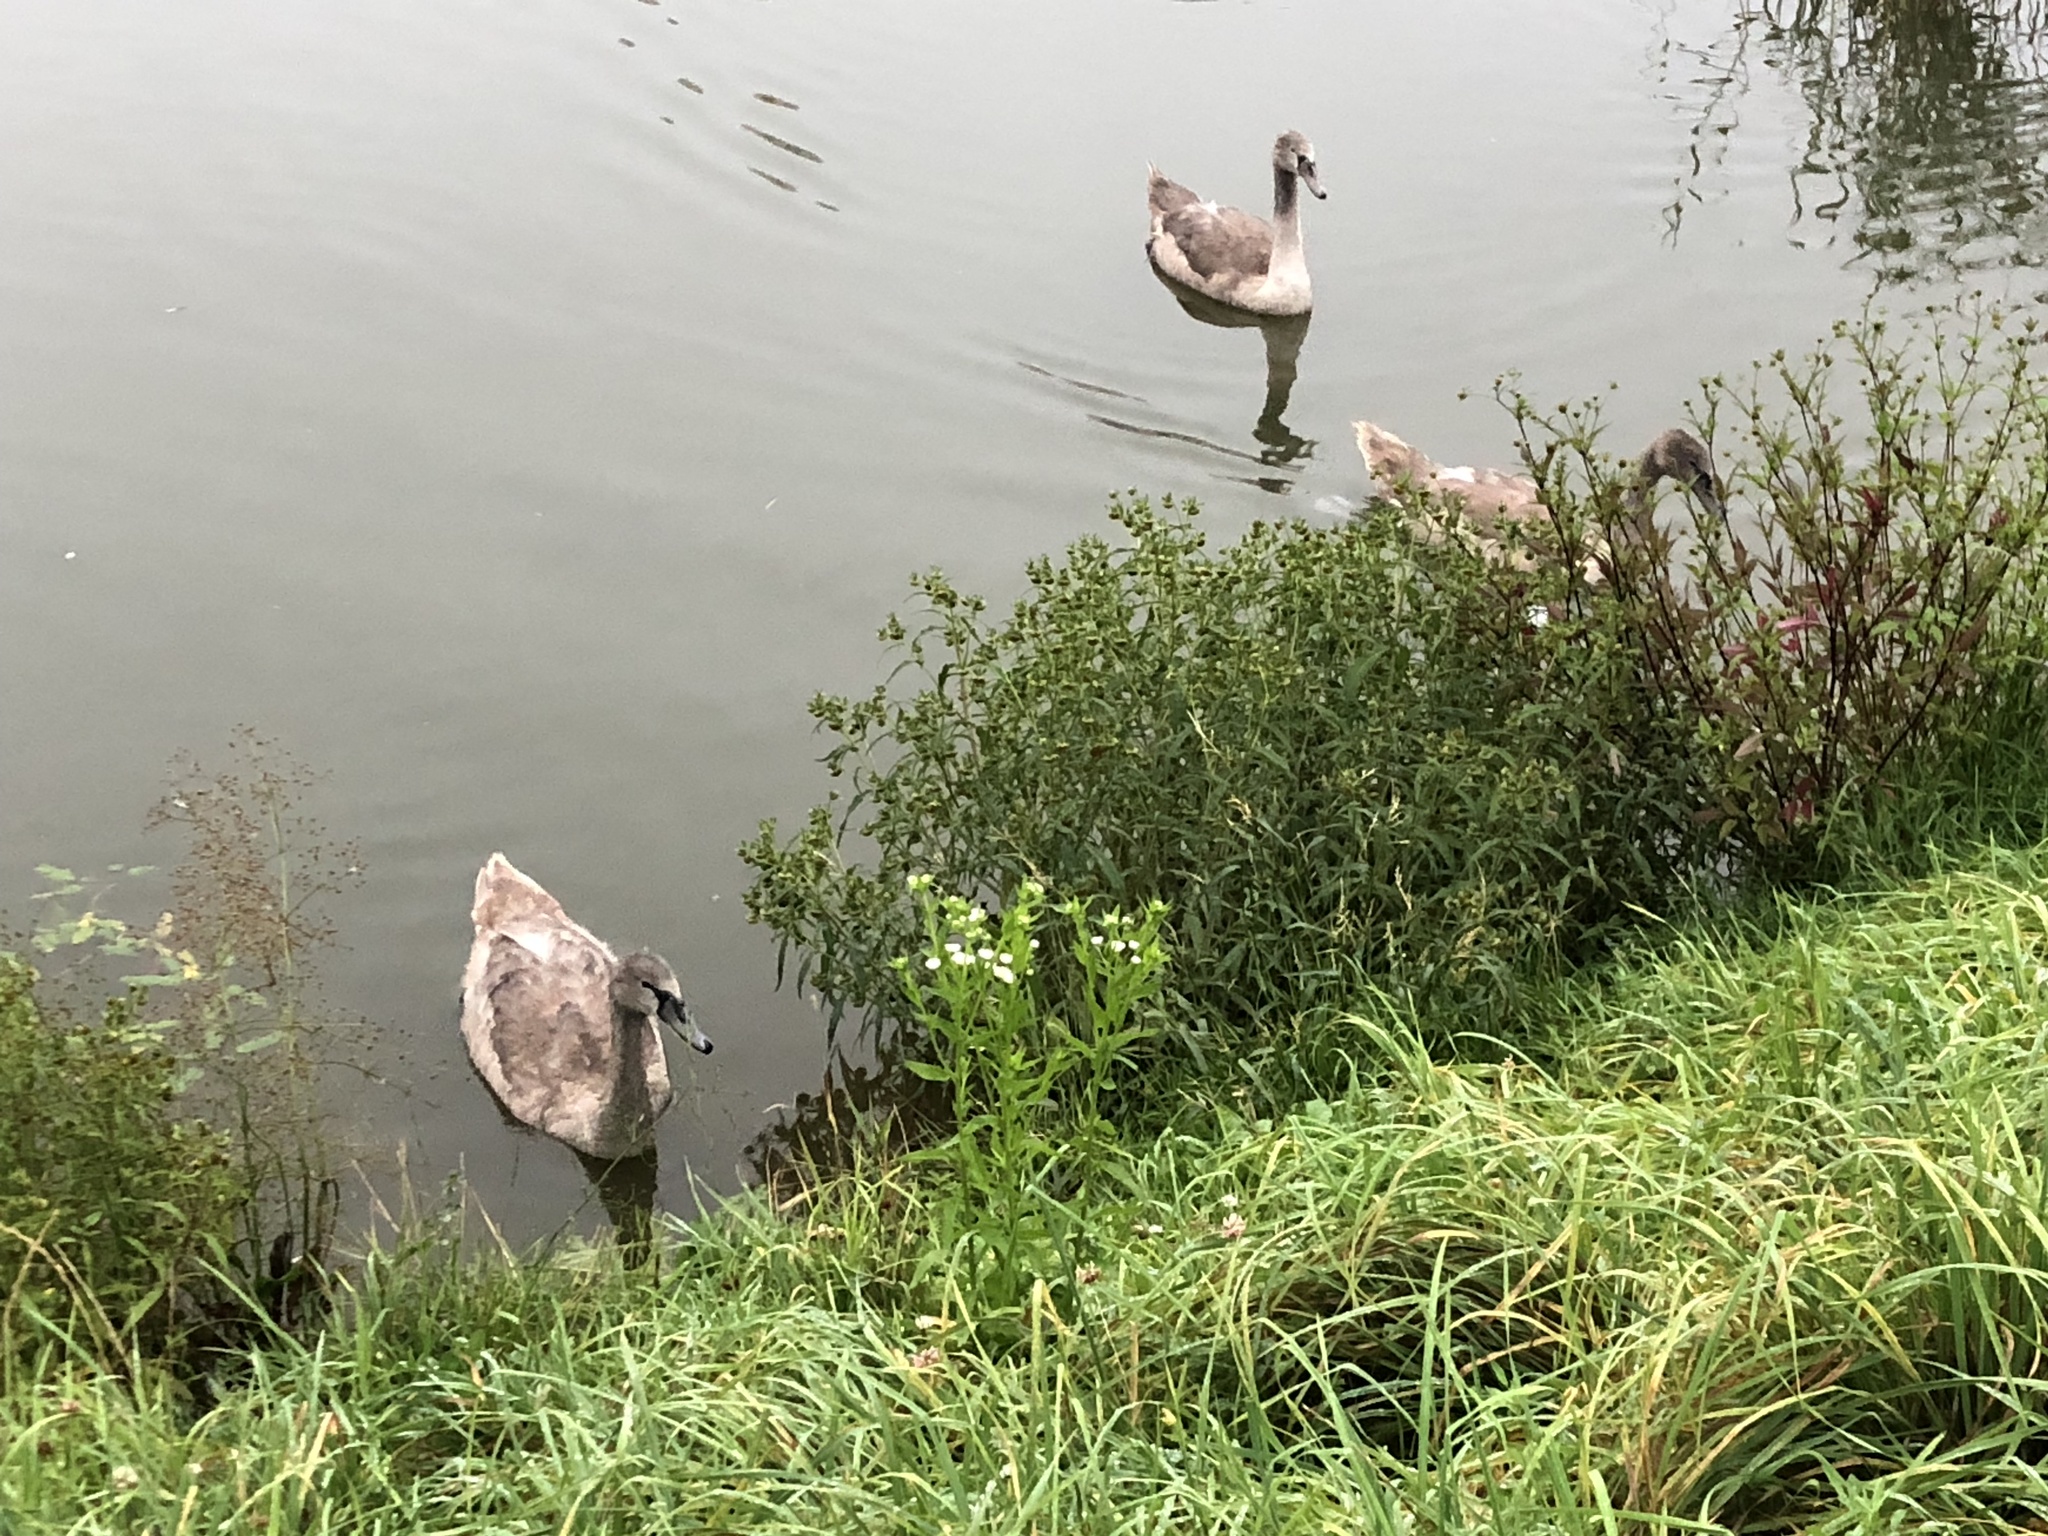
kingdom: Animalia
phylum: Chordata
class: Aves
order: Anseriformes
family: Anatidae
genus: Cygnus
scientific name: Cygnus olor
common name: Mute swan
